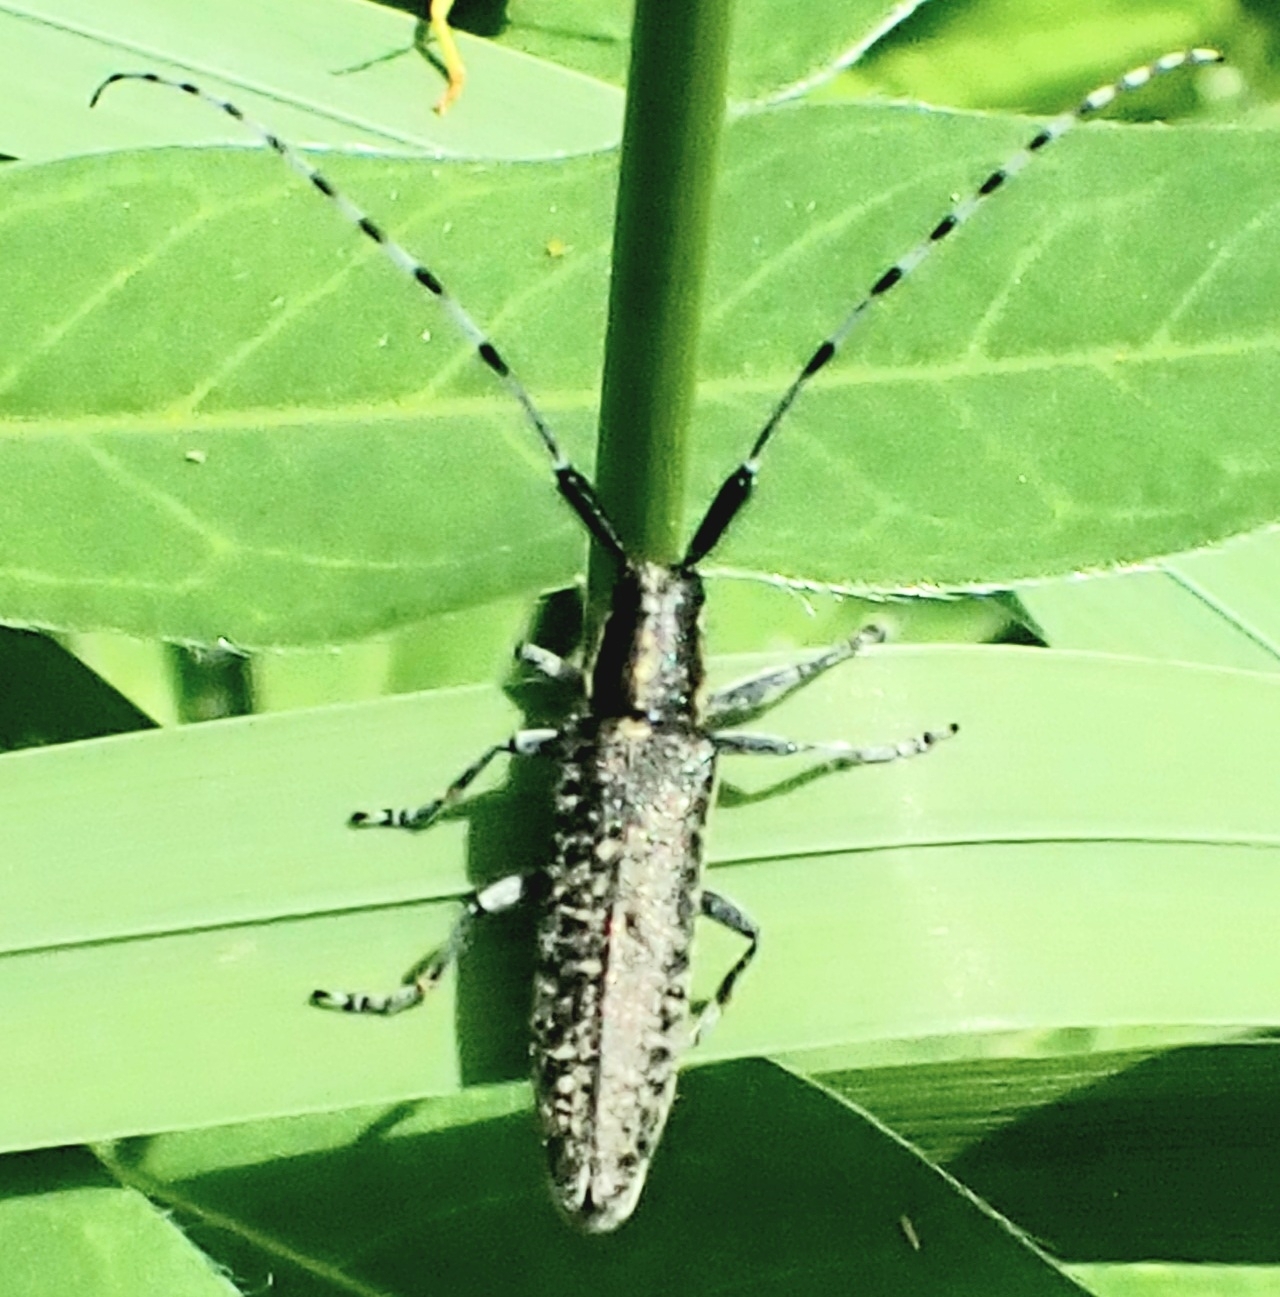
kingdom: Animalia
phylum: Arthropoda
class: Insecta
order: Coleoptera
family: Cerambycidae
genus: Agapanthia
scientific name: Agapanthia villosoviridescens
